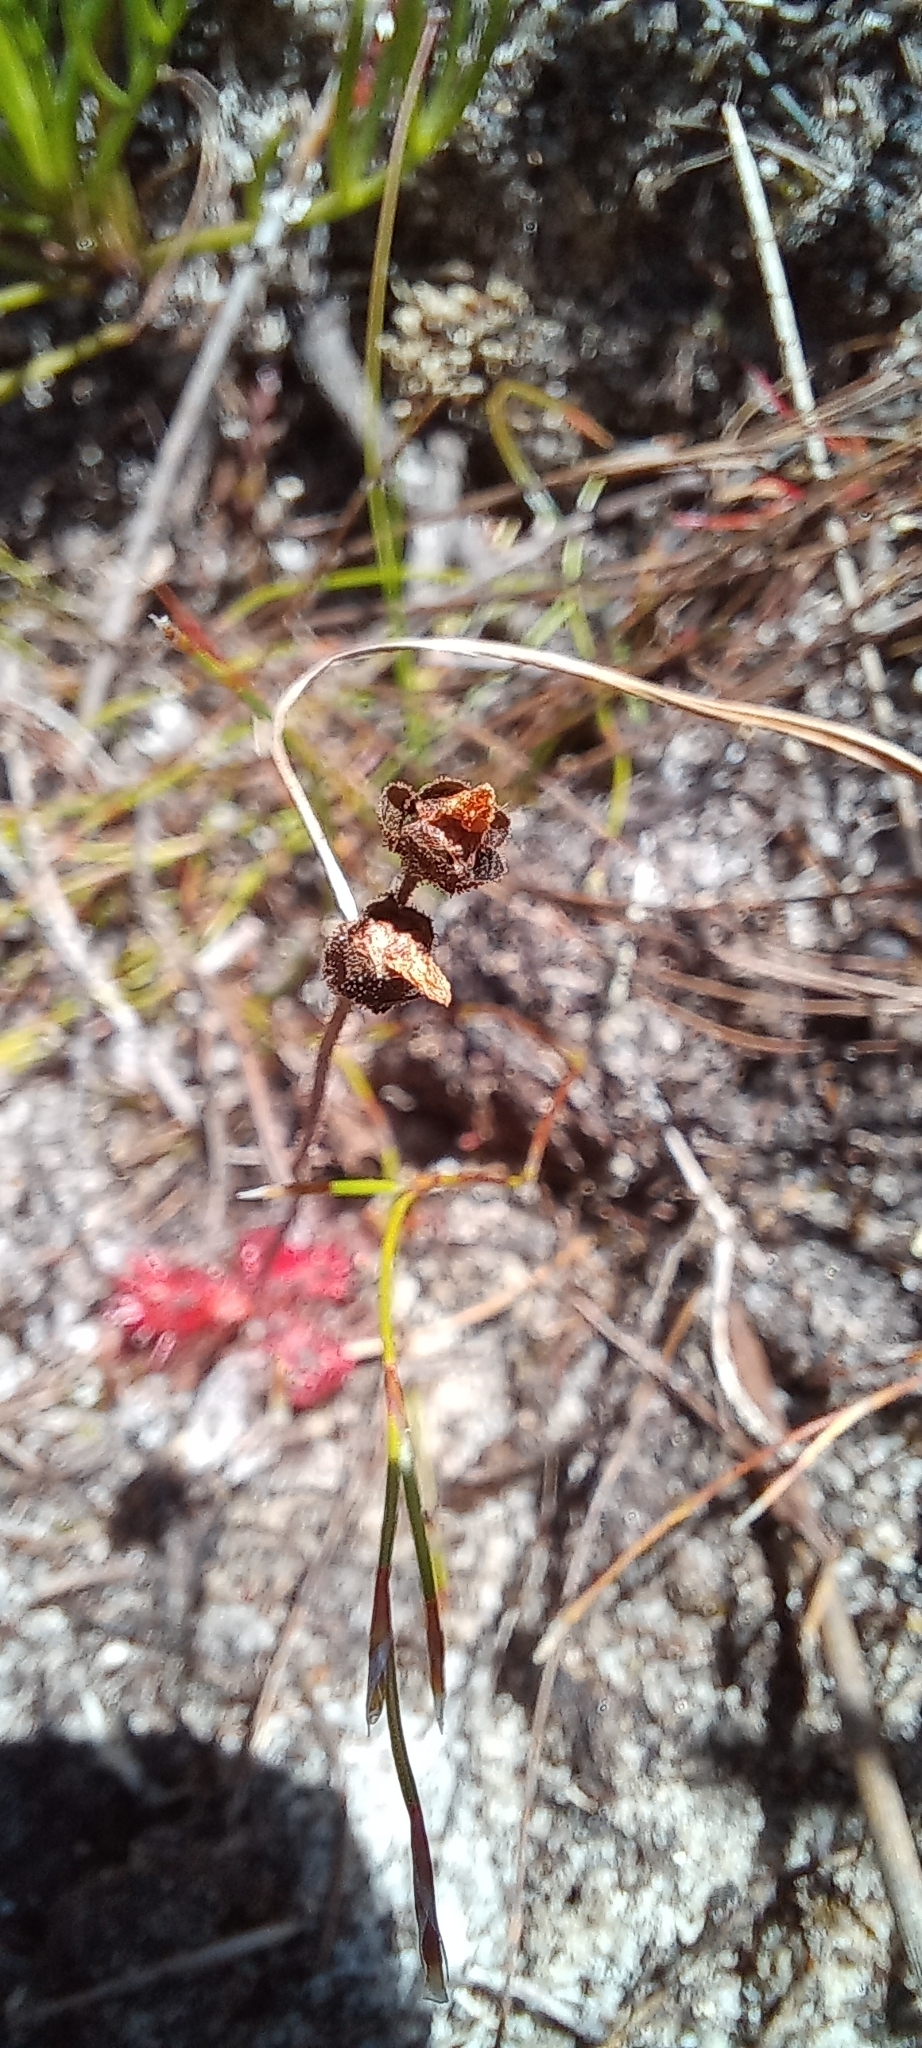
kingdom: Plantae
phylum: Tracheophyta
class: Magnoliopsida
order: Caryophyllales
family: Droseraceae
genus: Drosera
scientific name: Drosera trinervia
